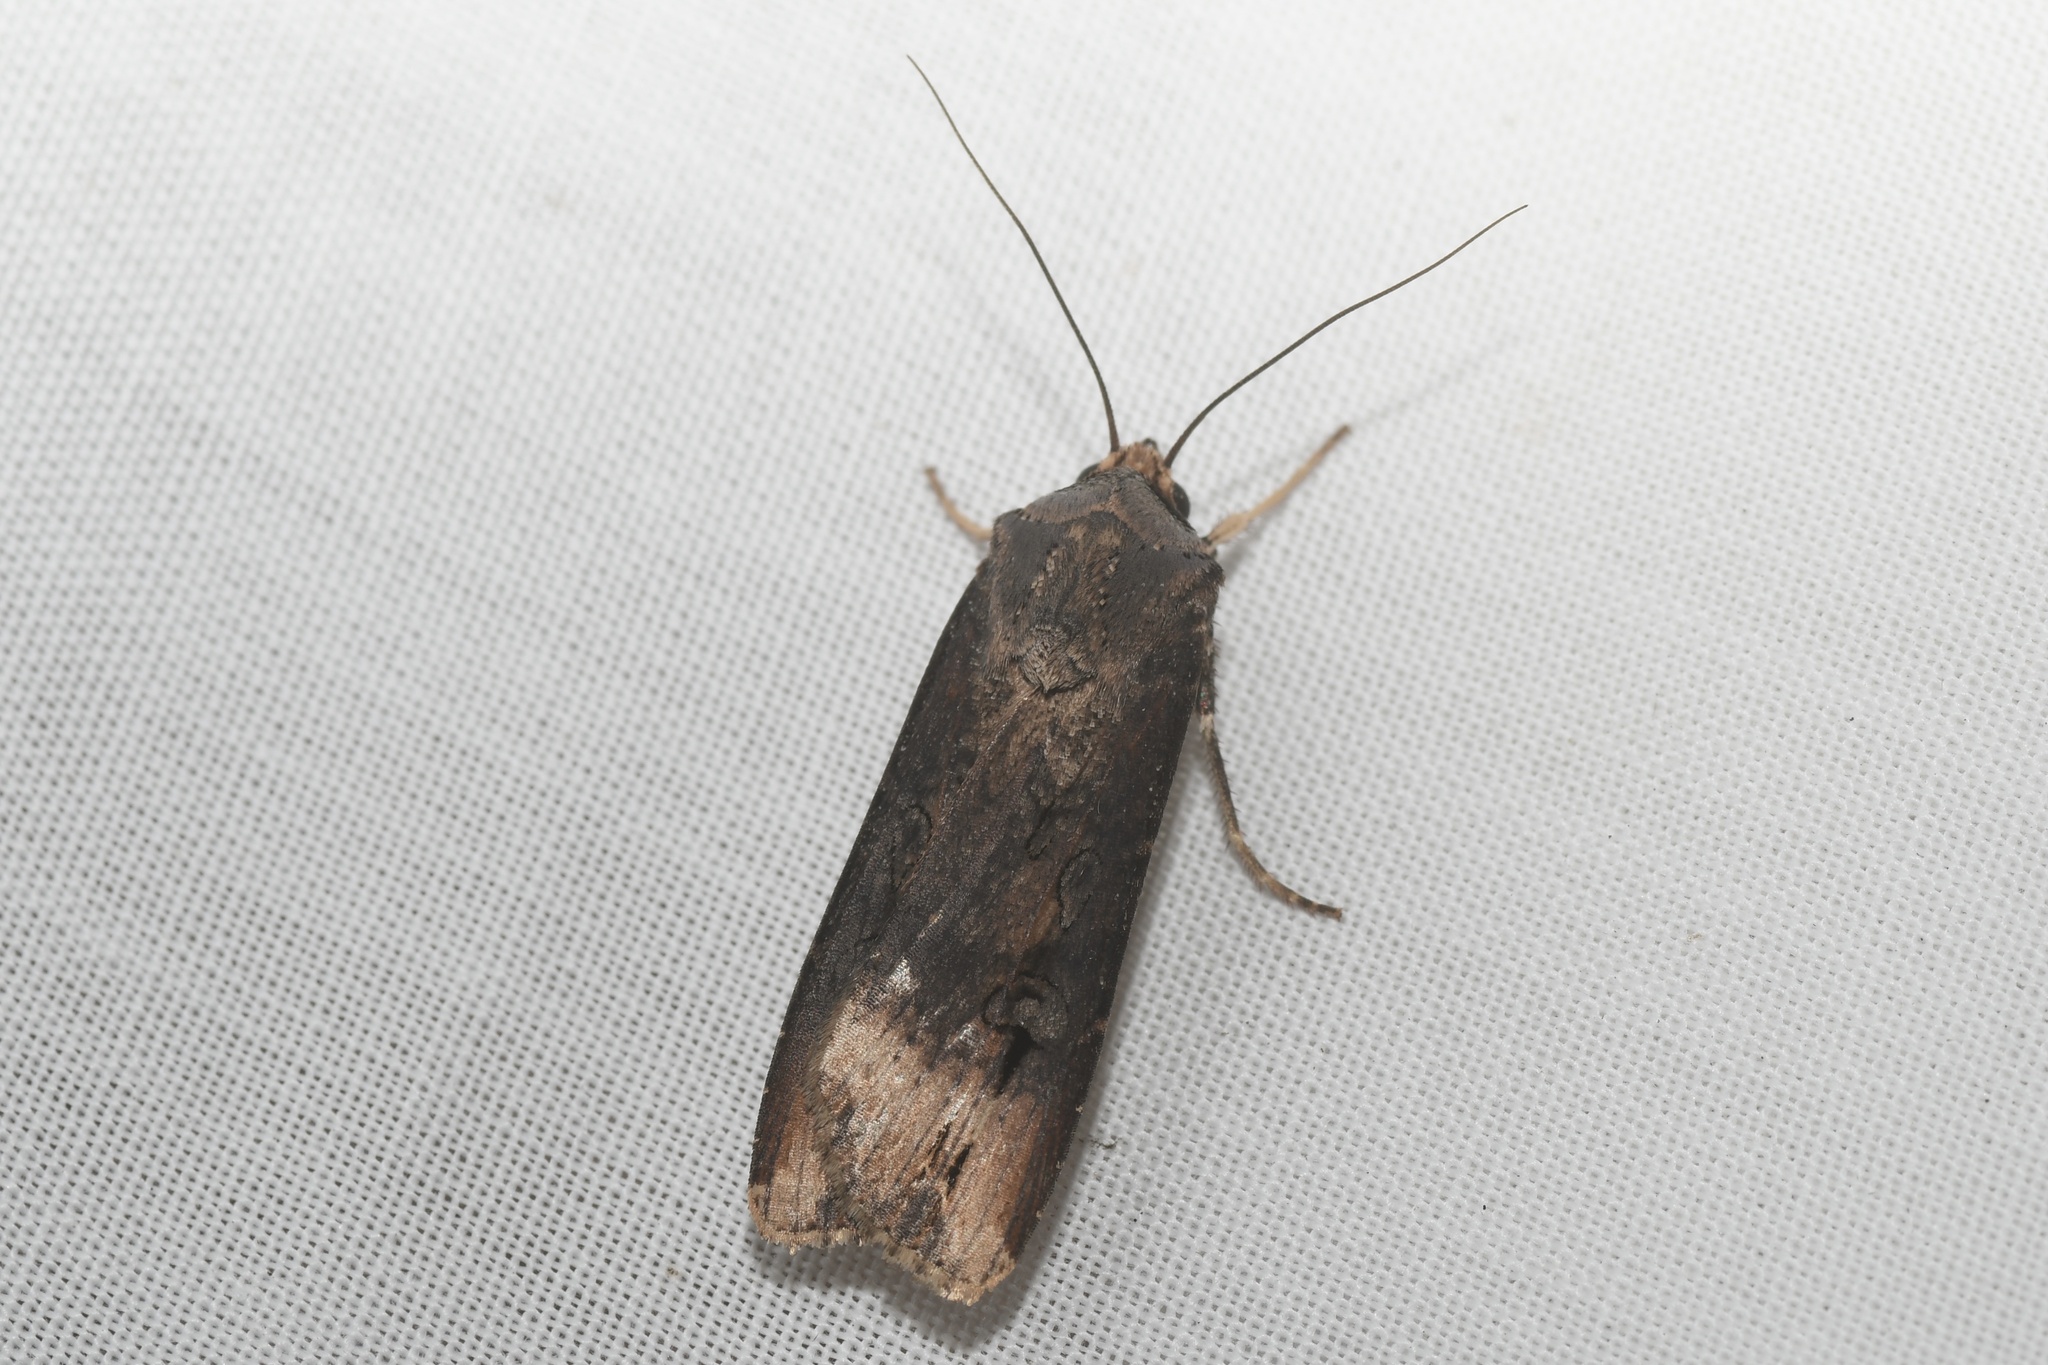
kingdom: Animalia
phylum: Arthropoda
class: Insecta
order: Lepidoptera
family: Noctuidae
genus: Agrotis
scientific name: Agrotis ipsilon
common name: Dark sword-grass
